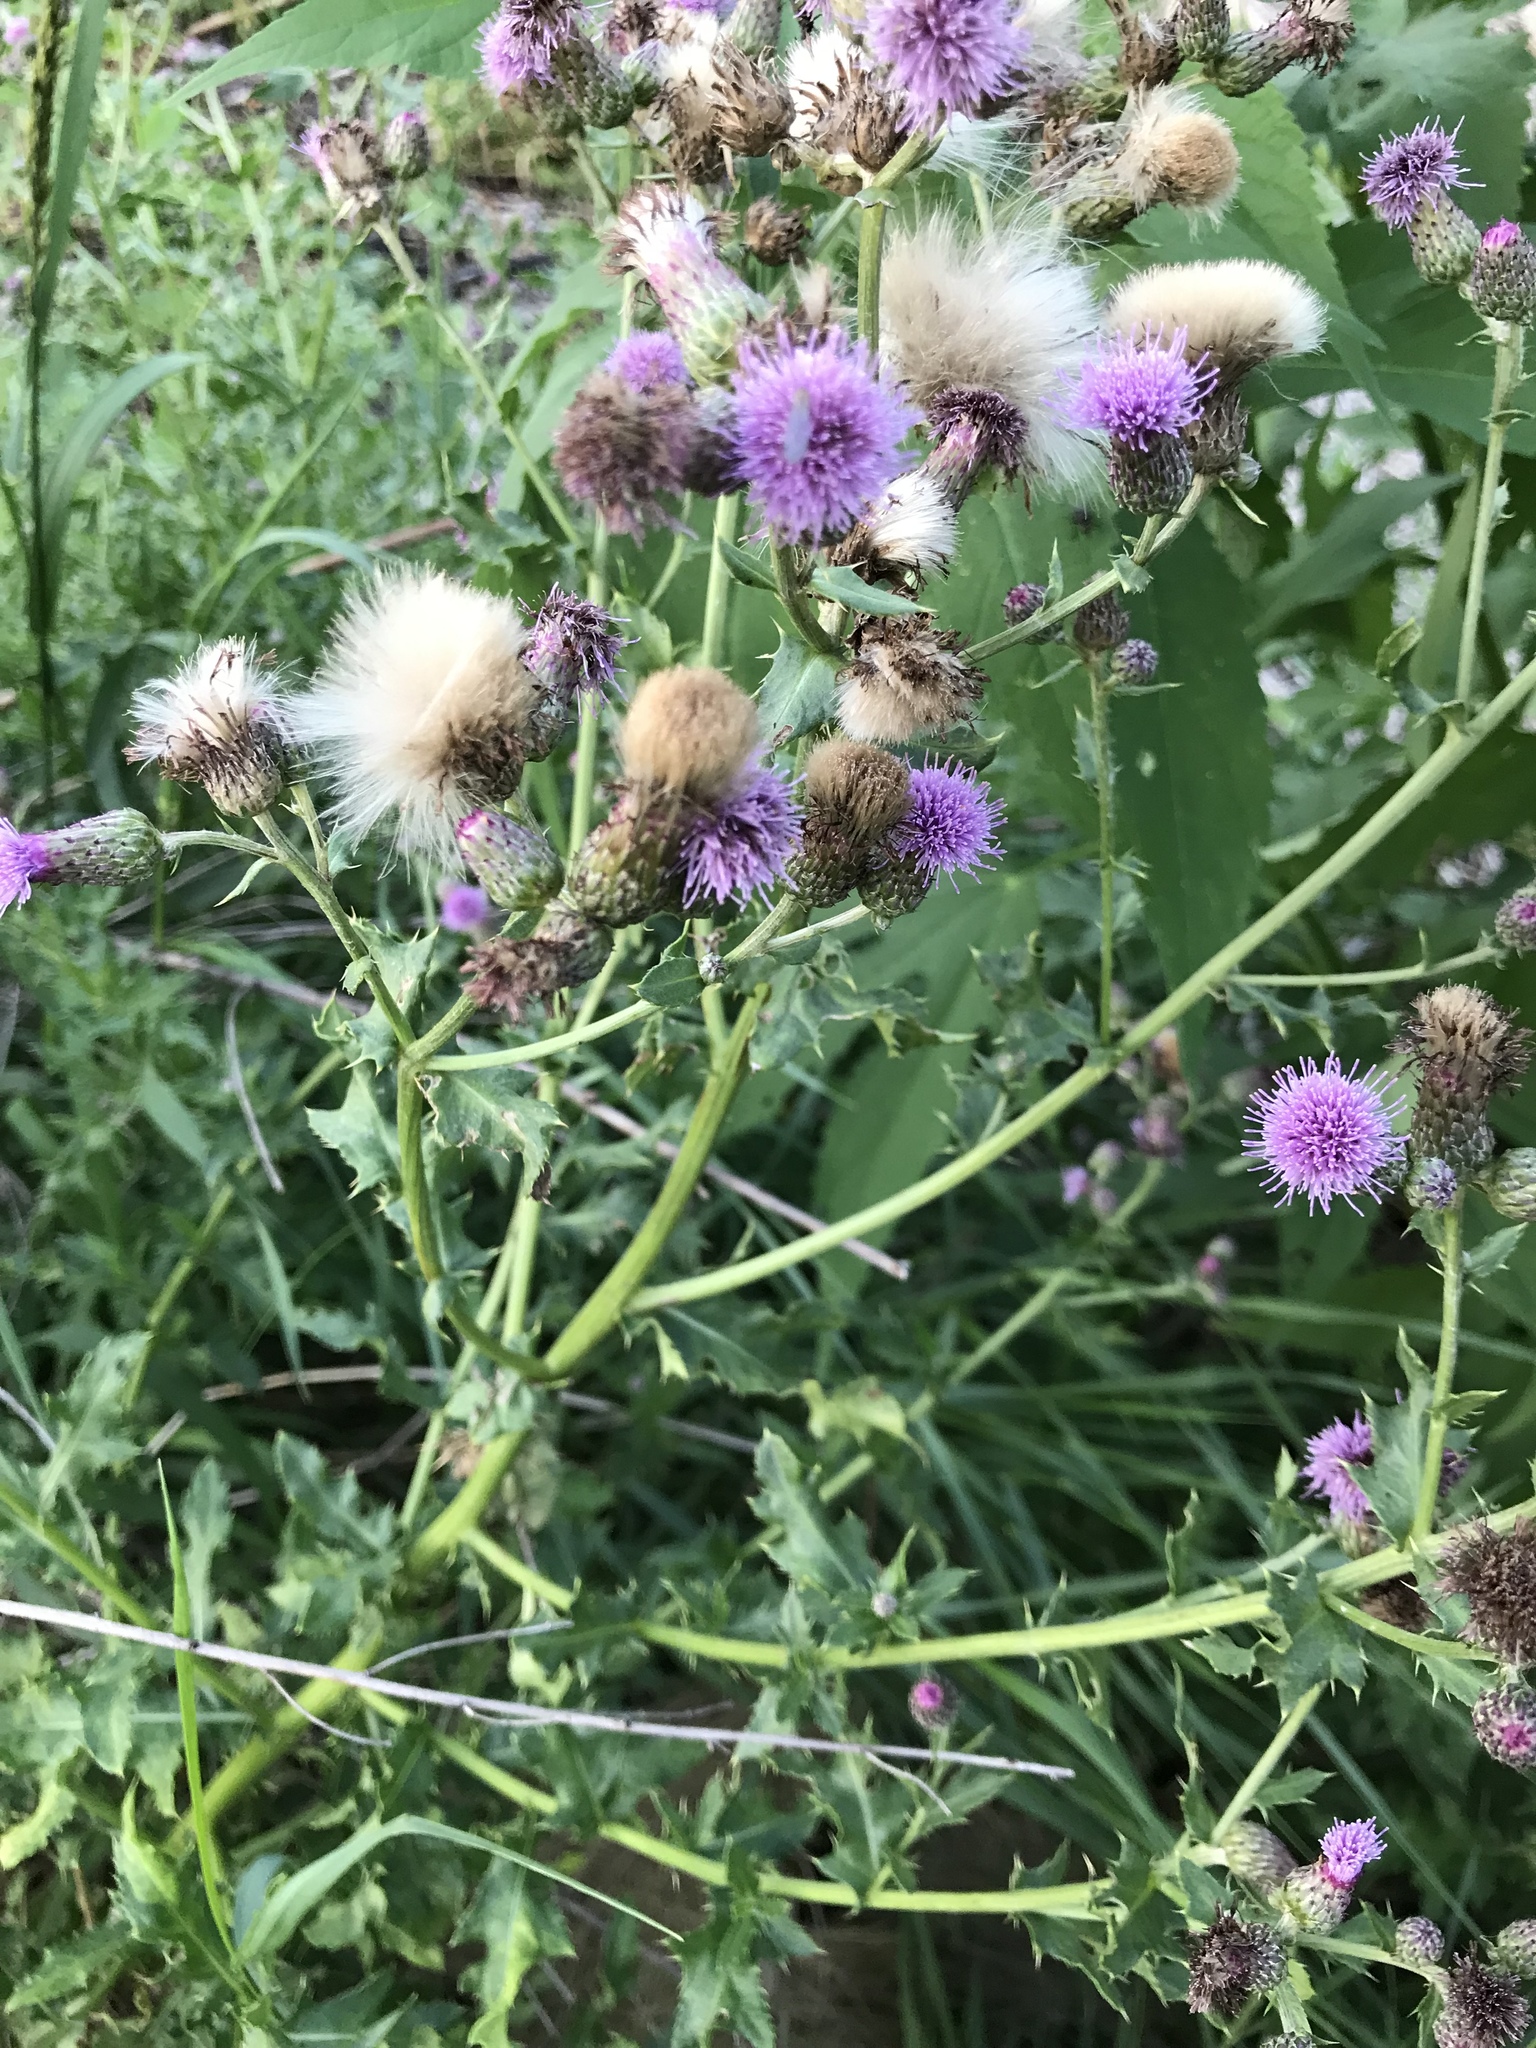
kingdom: Plantae
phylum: Tracheophyta
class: Magnoliopsida
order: Asterales
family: Asteraceae
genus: Cirsium
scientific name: Cirsium arvense
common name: Creeping thistle
